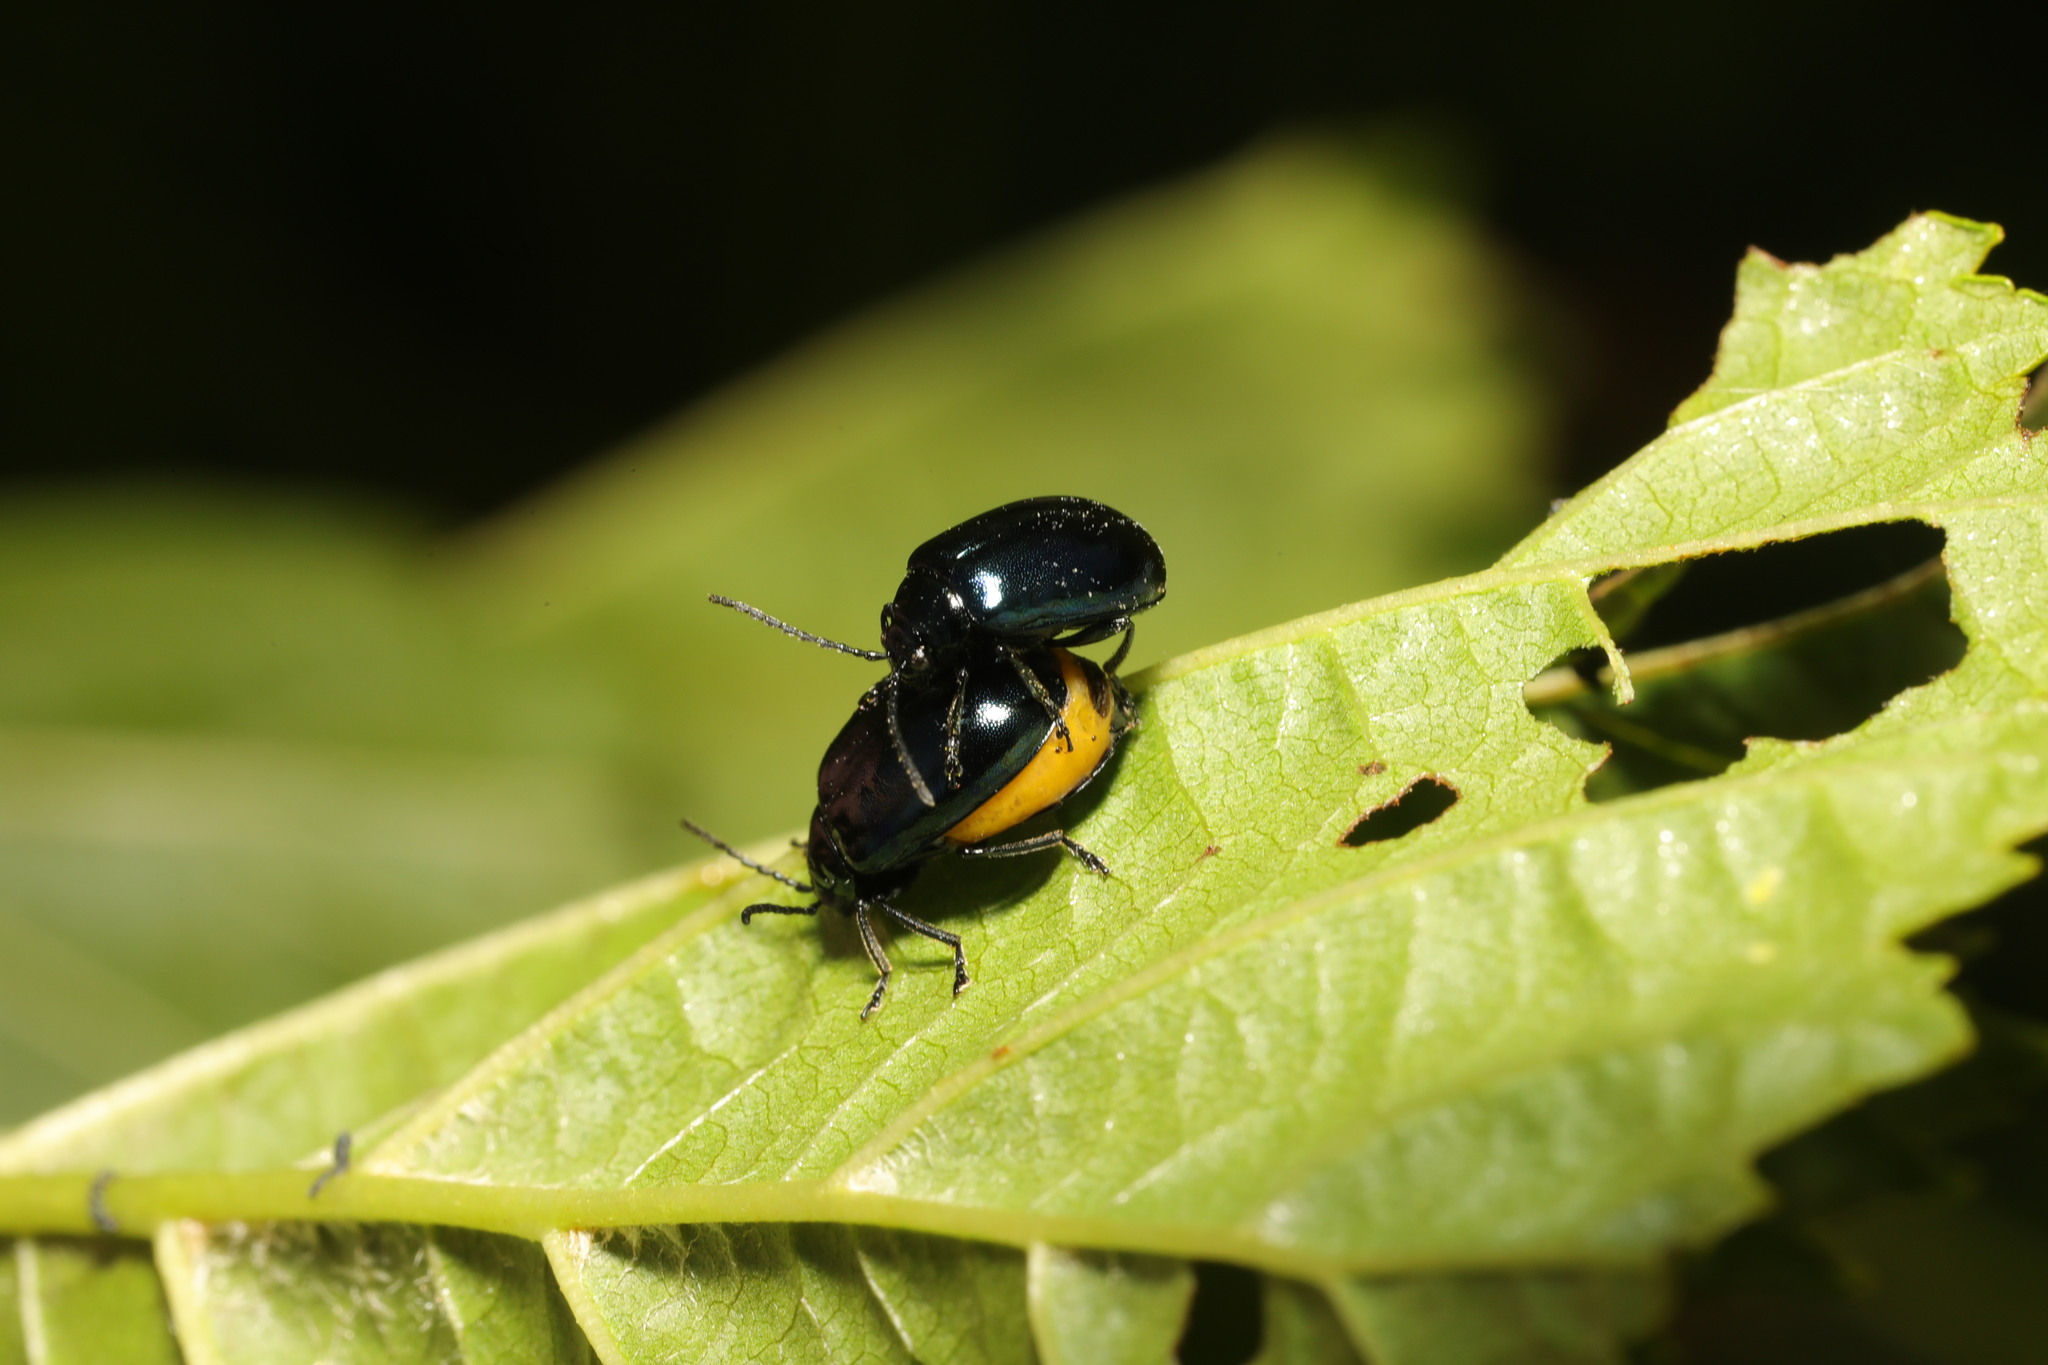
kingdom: Animalia
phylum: Arthropoda
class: Insecta
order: Coleoptera
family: Chrysomelidae
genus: Agelastica
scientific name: Agelastica alni
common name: Alder leaf beetle
